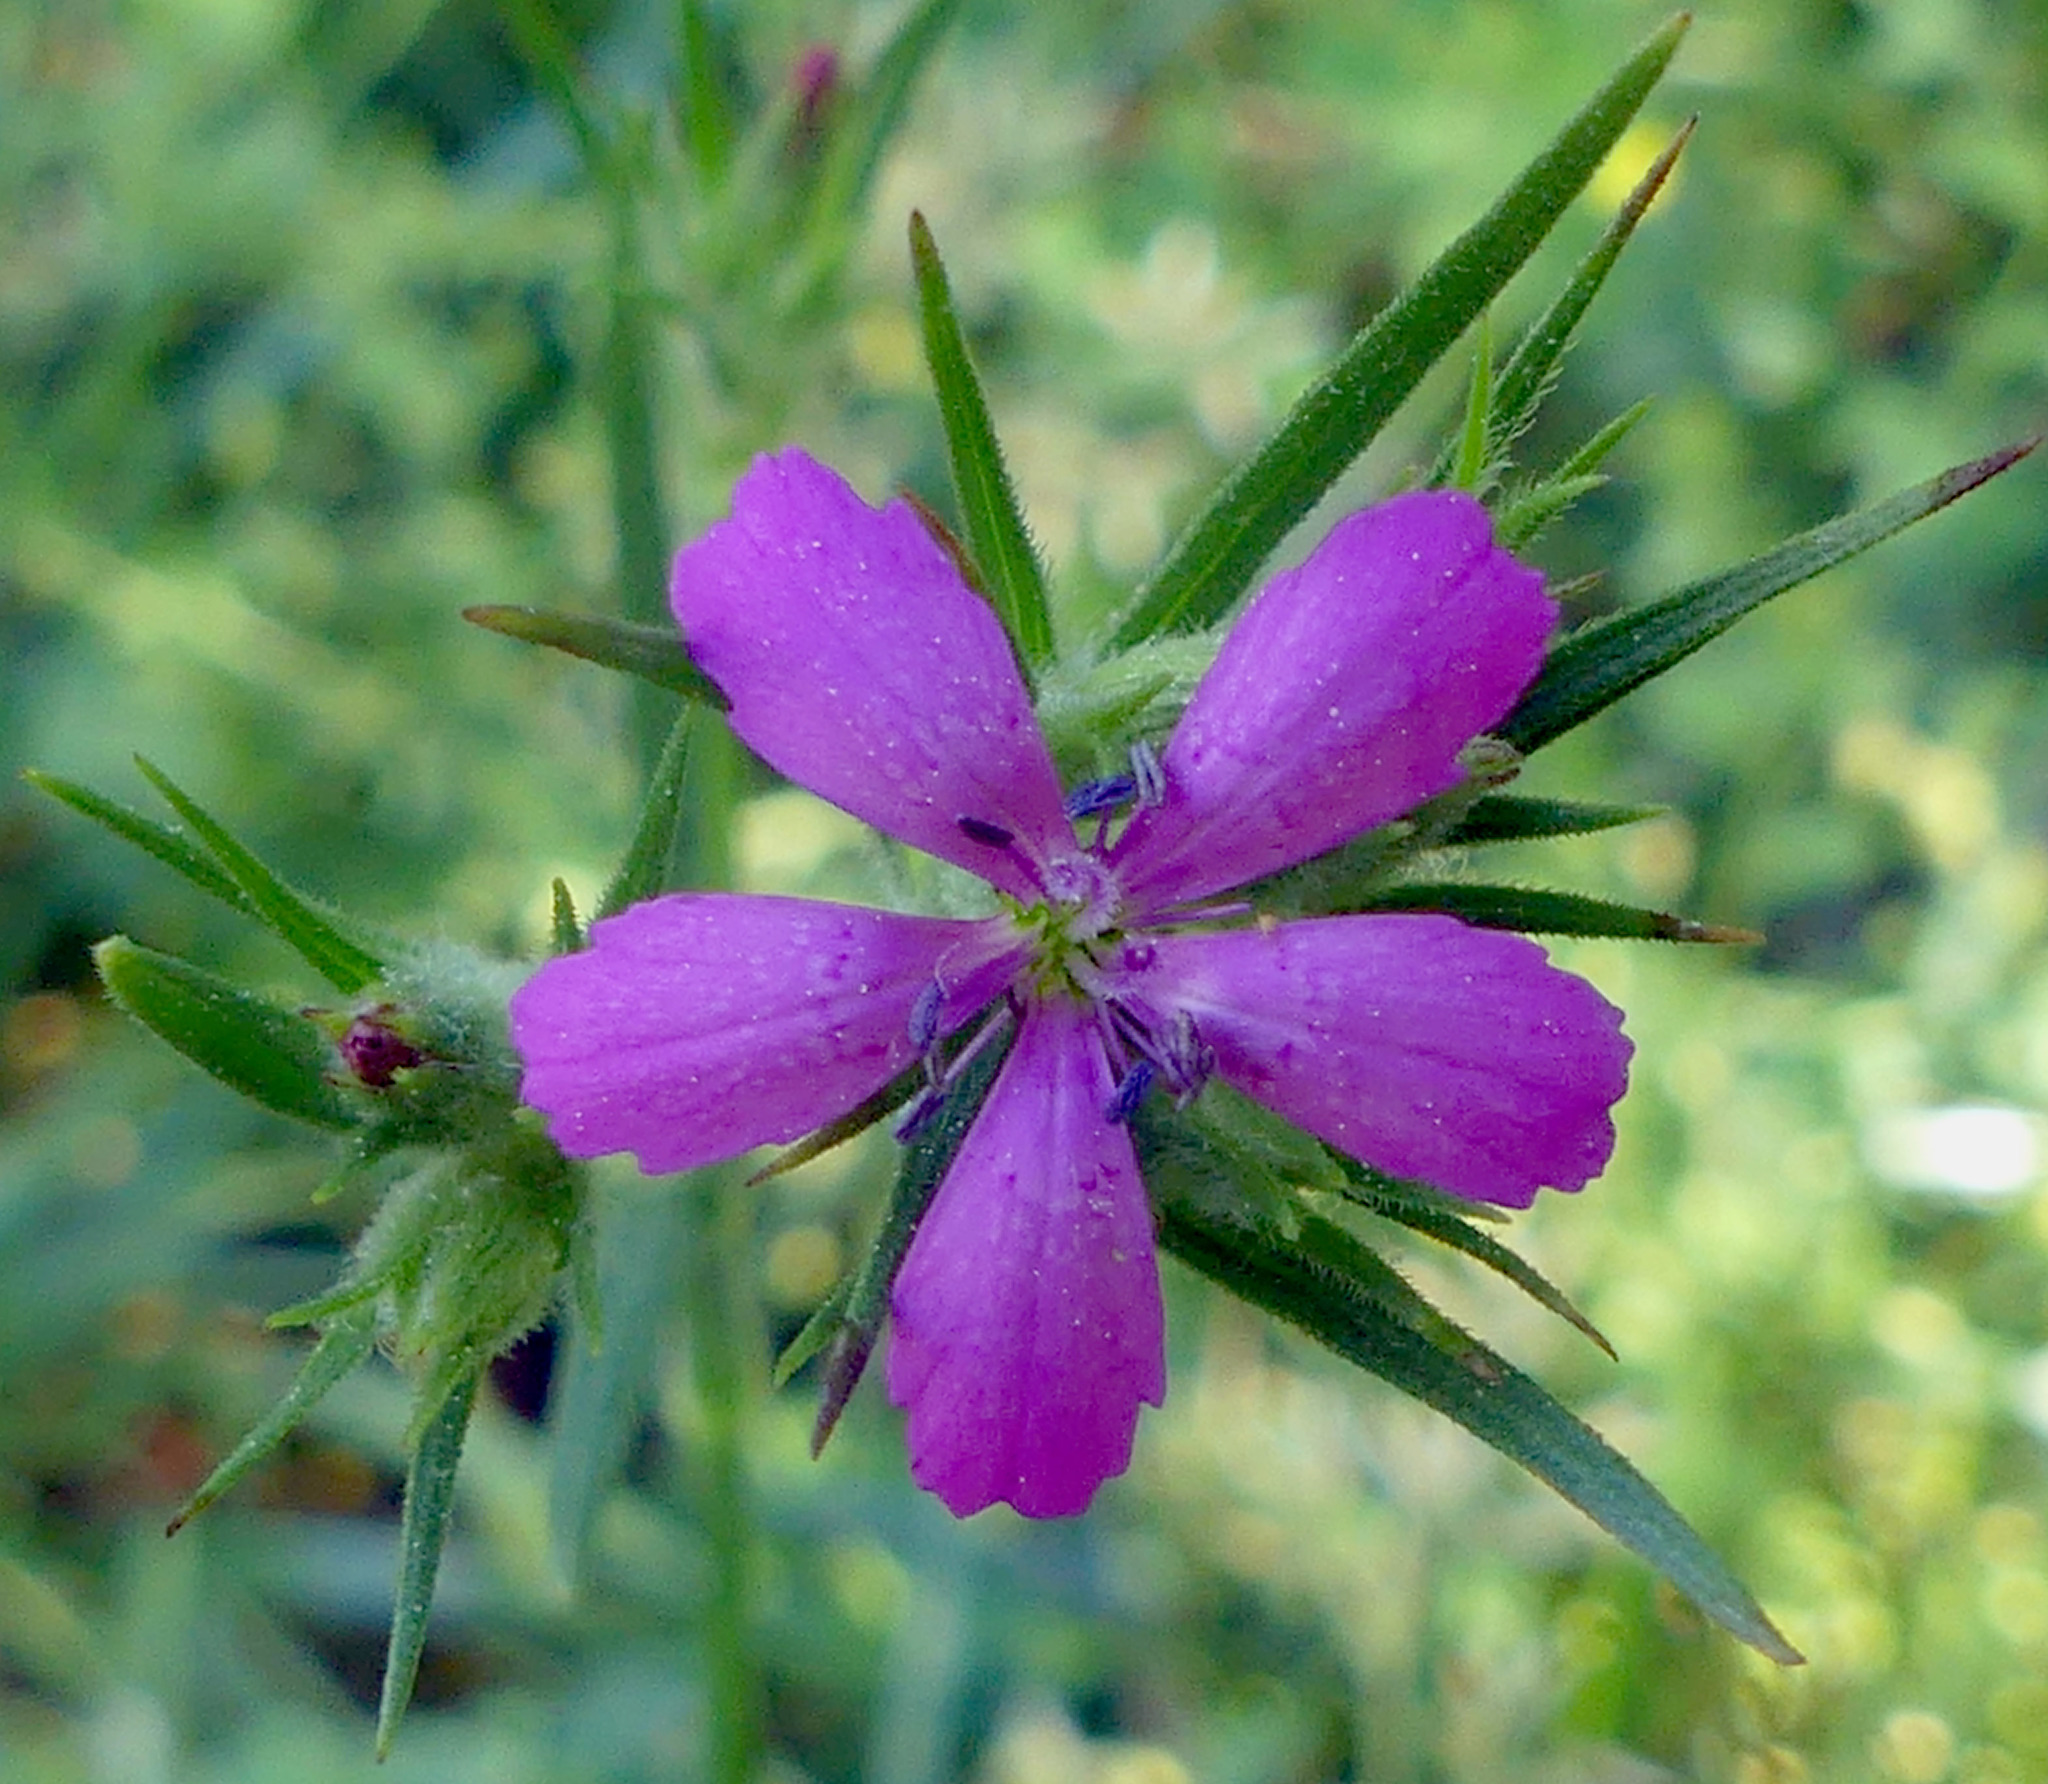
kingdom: Plantae
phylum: Tracheophyta
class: Magnoliopsida
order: Caryophyllales
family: Caryophyllaceae
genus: Dianthus
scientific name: Dianthus armeria
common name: Deptford pink
